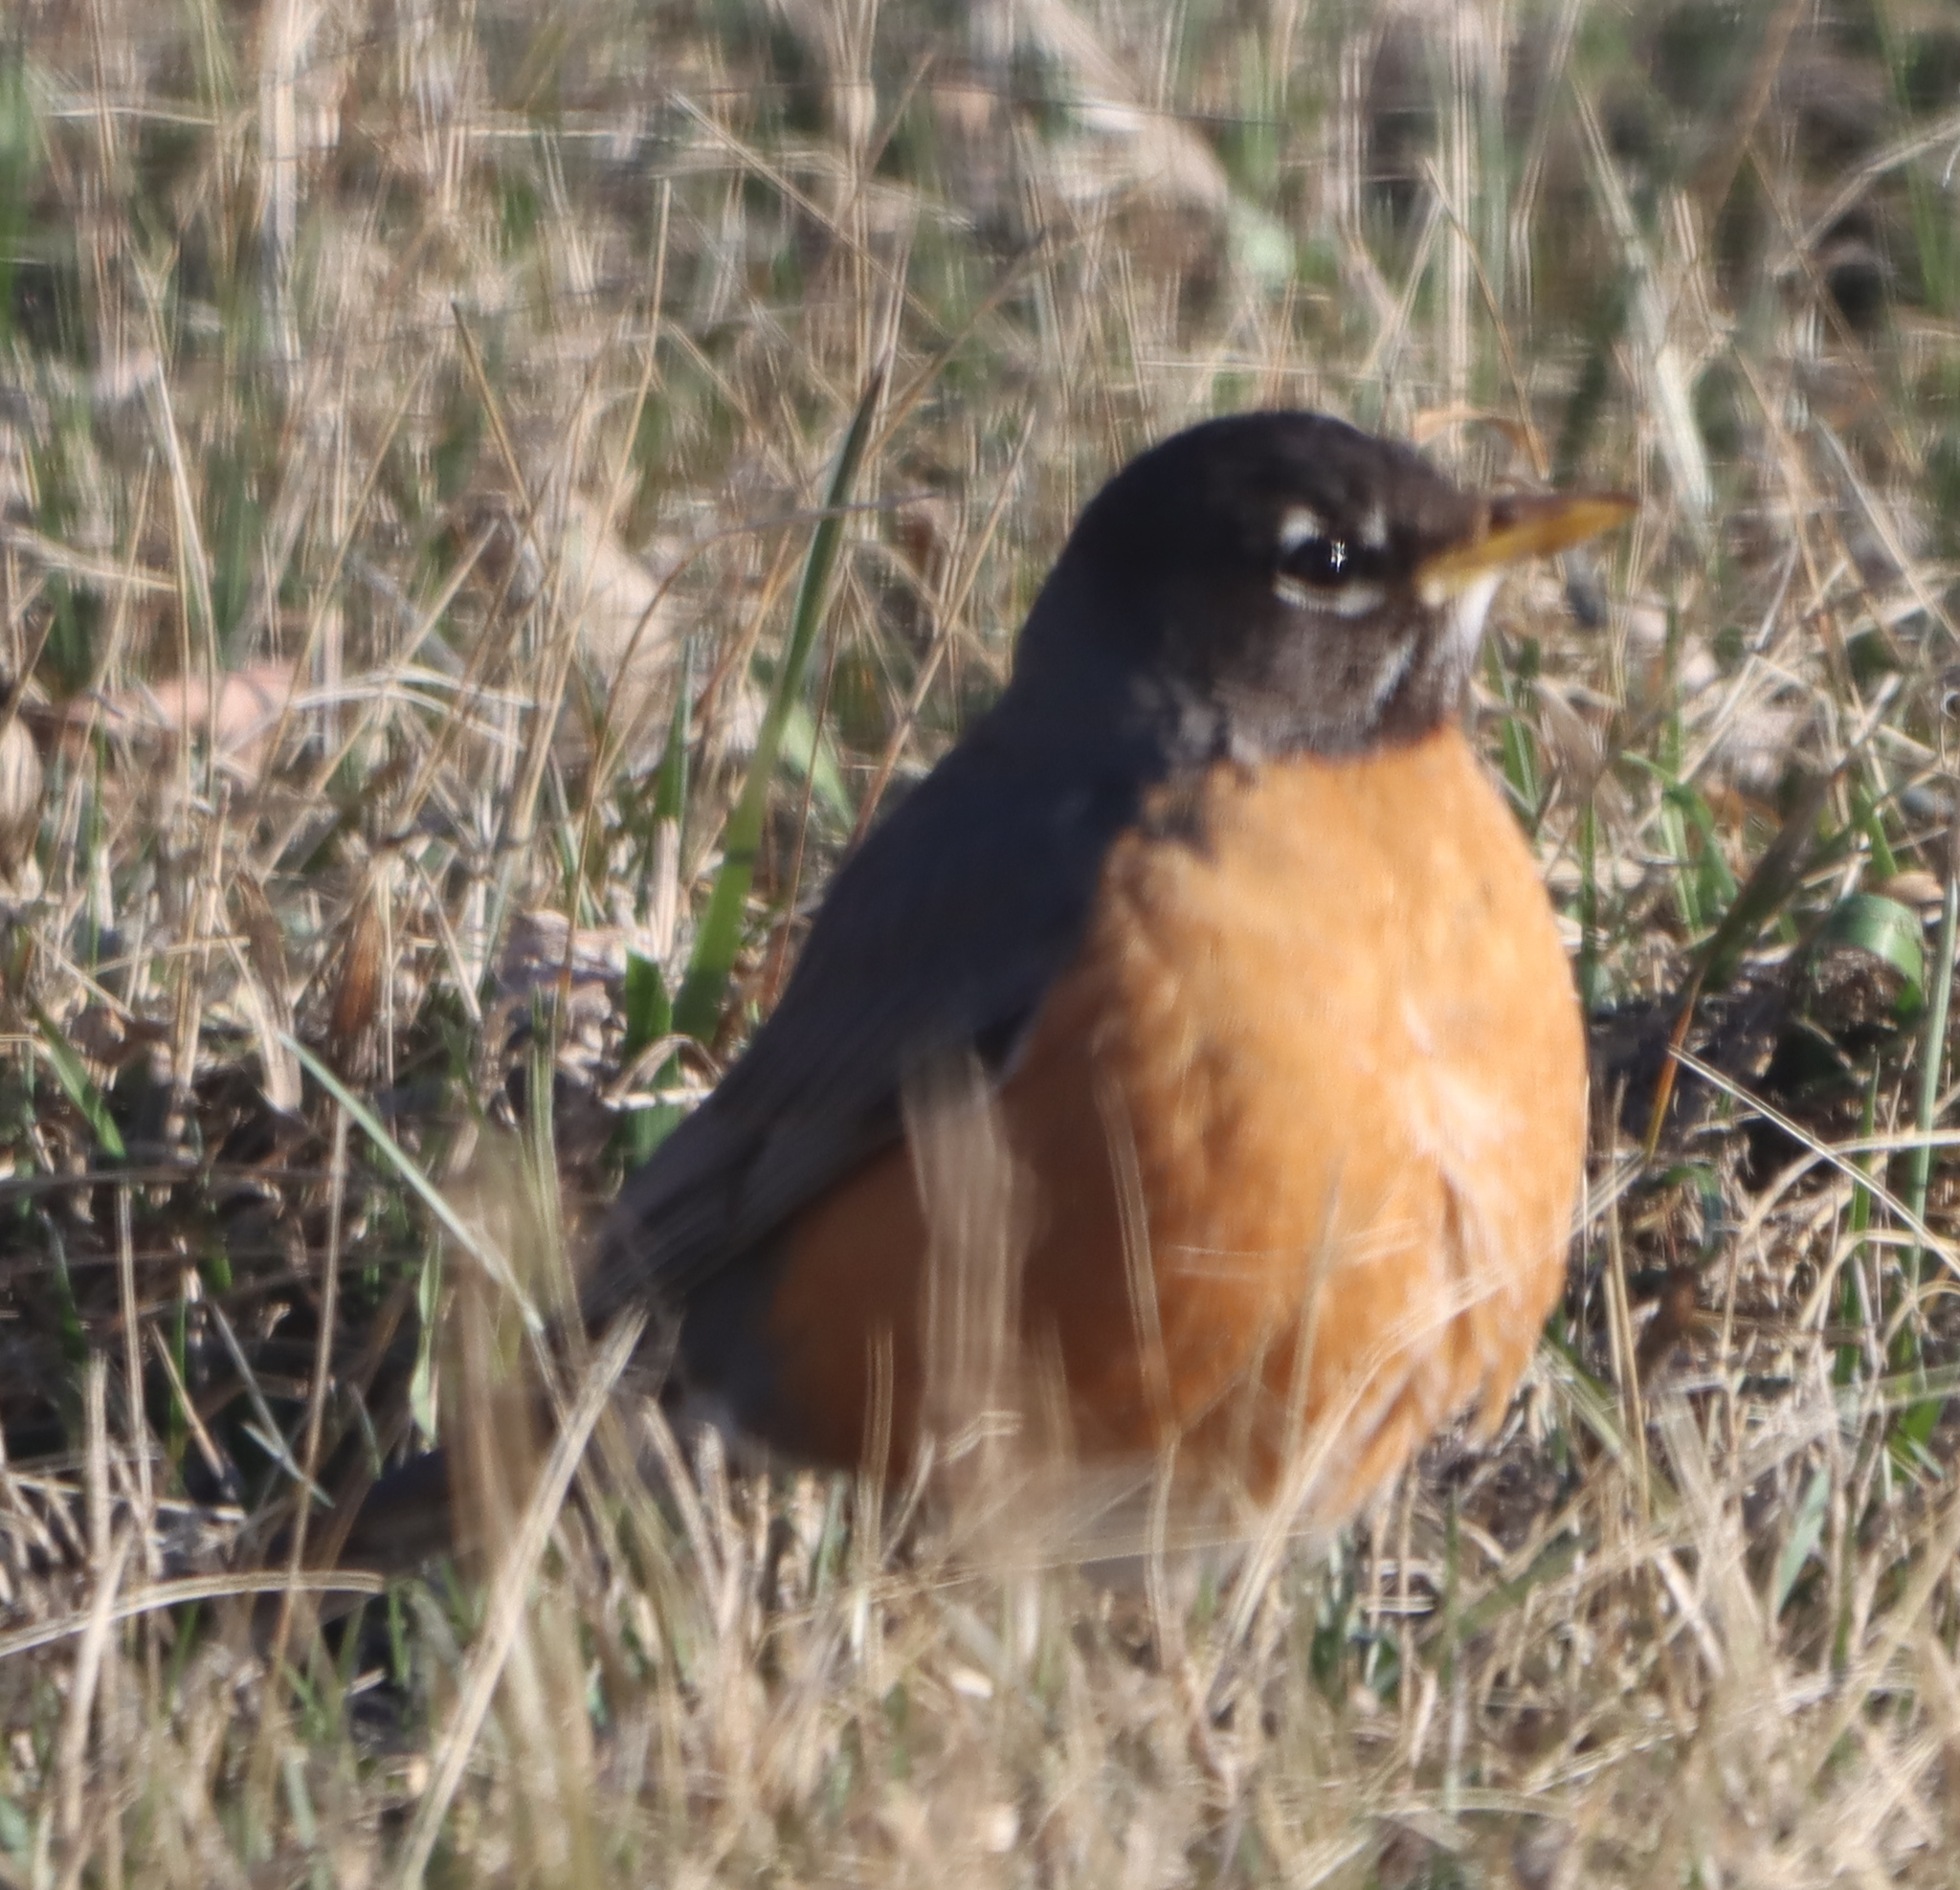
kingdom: Animalia
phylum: Chordata
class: Aves
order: Passeriformes
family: Turdidae
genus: Turdus
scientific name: Turdus migratorius
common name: American robin
